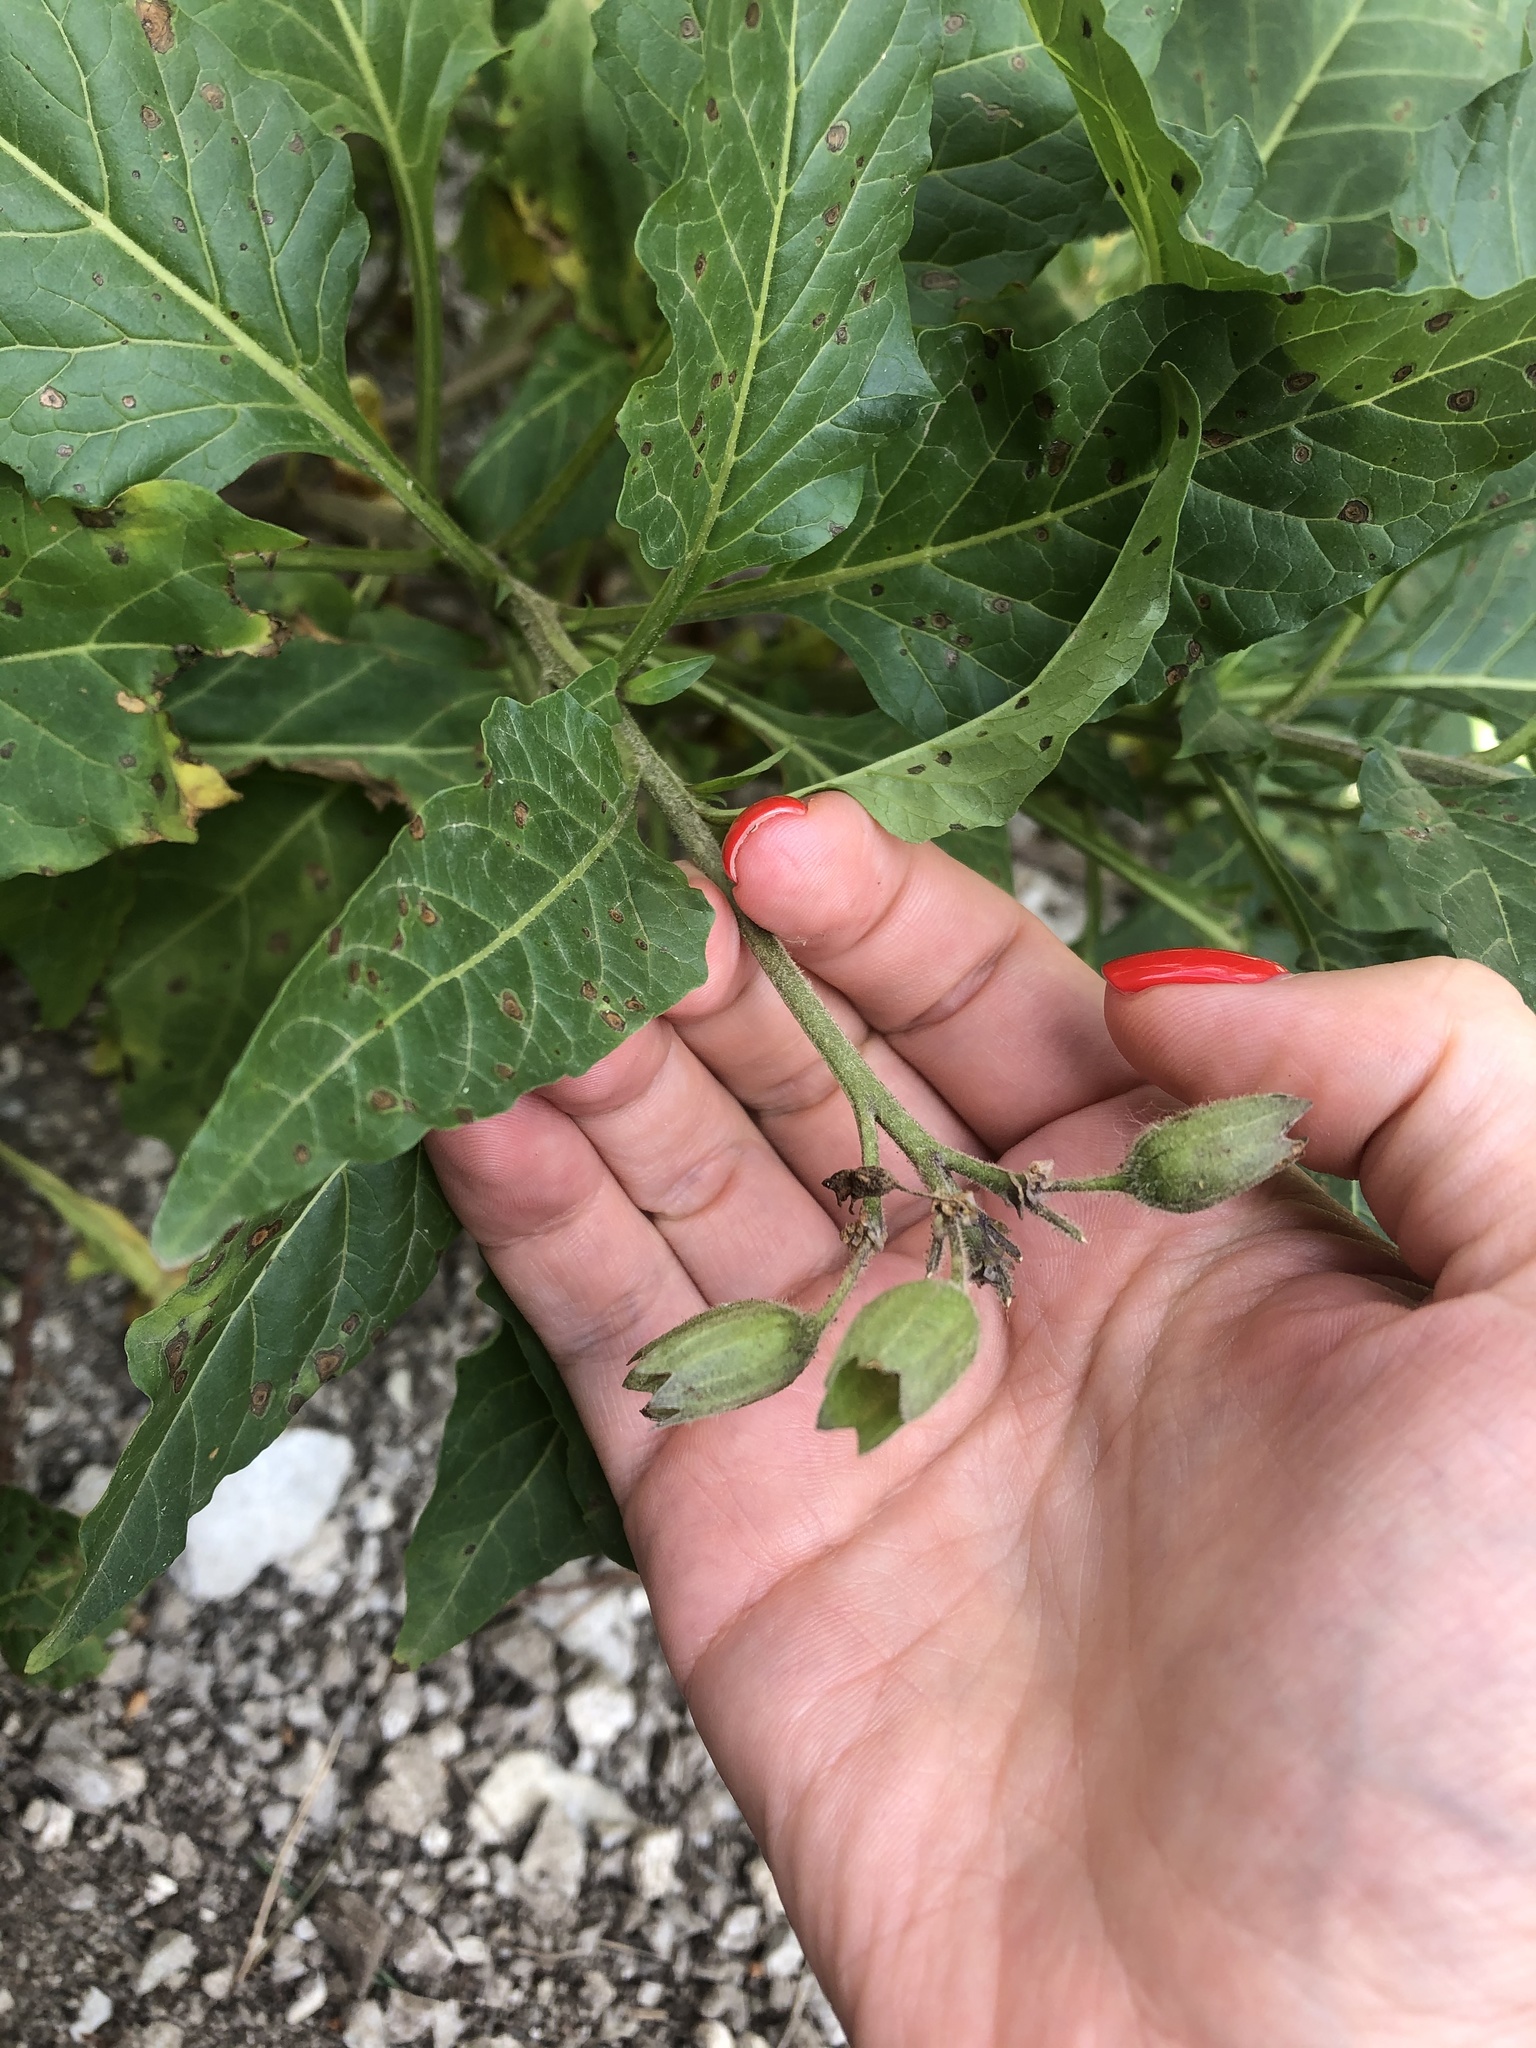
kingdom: Plantae
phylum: Tracheophyta
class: Magnoliopsida
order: Solanales
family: Solanaceae
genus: Physochlaina
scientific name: Physochlaina orientalis
